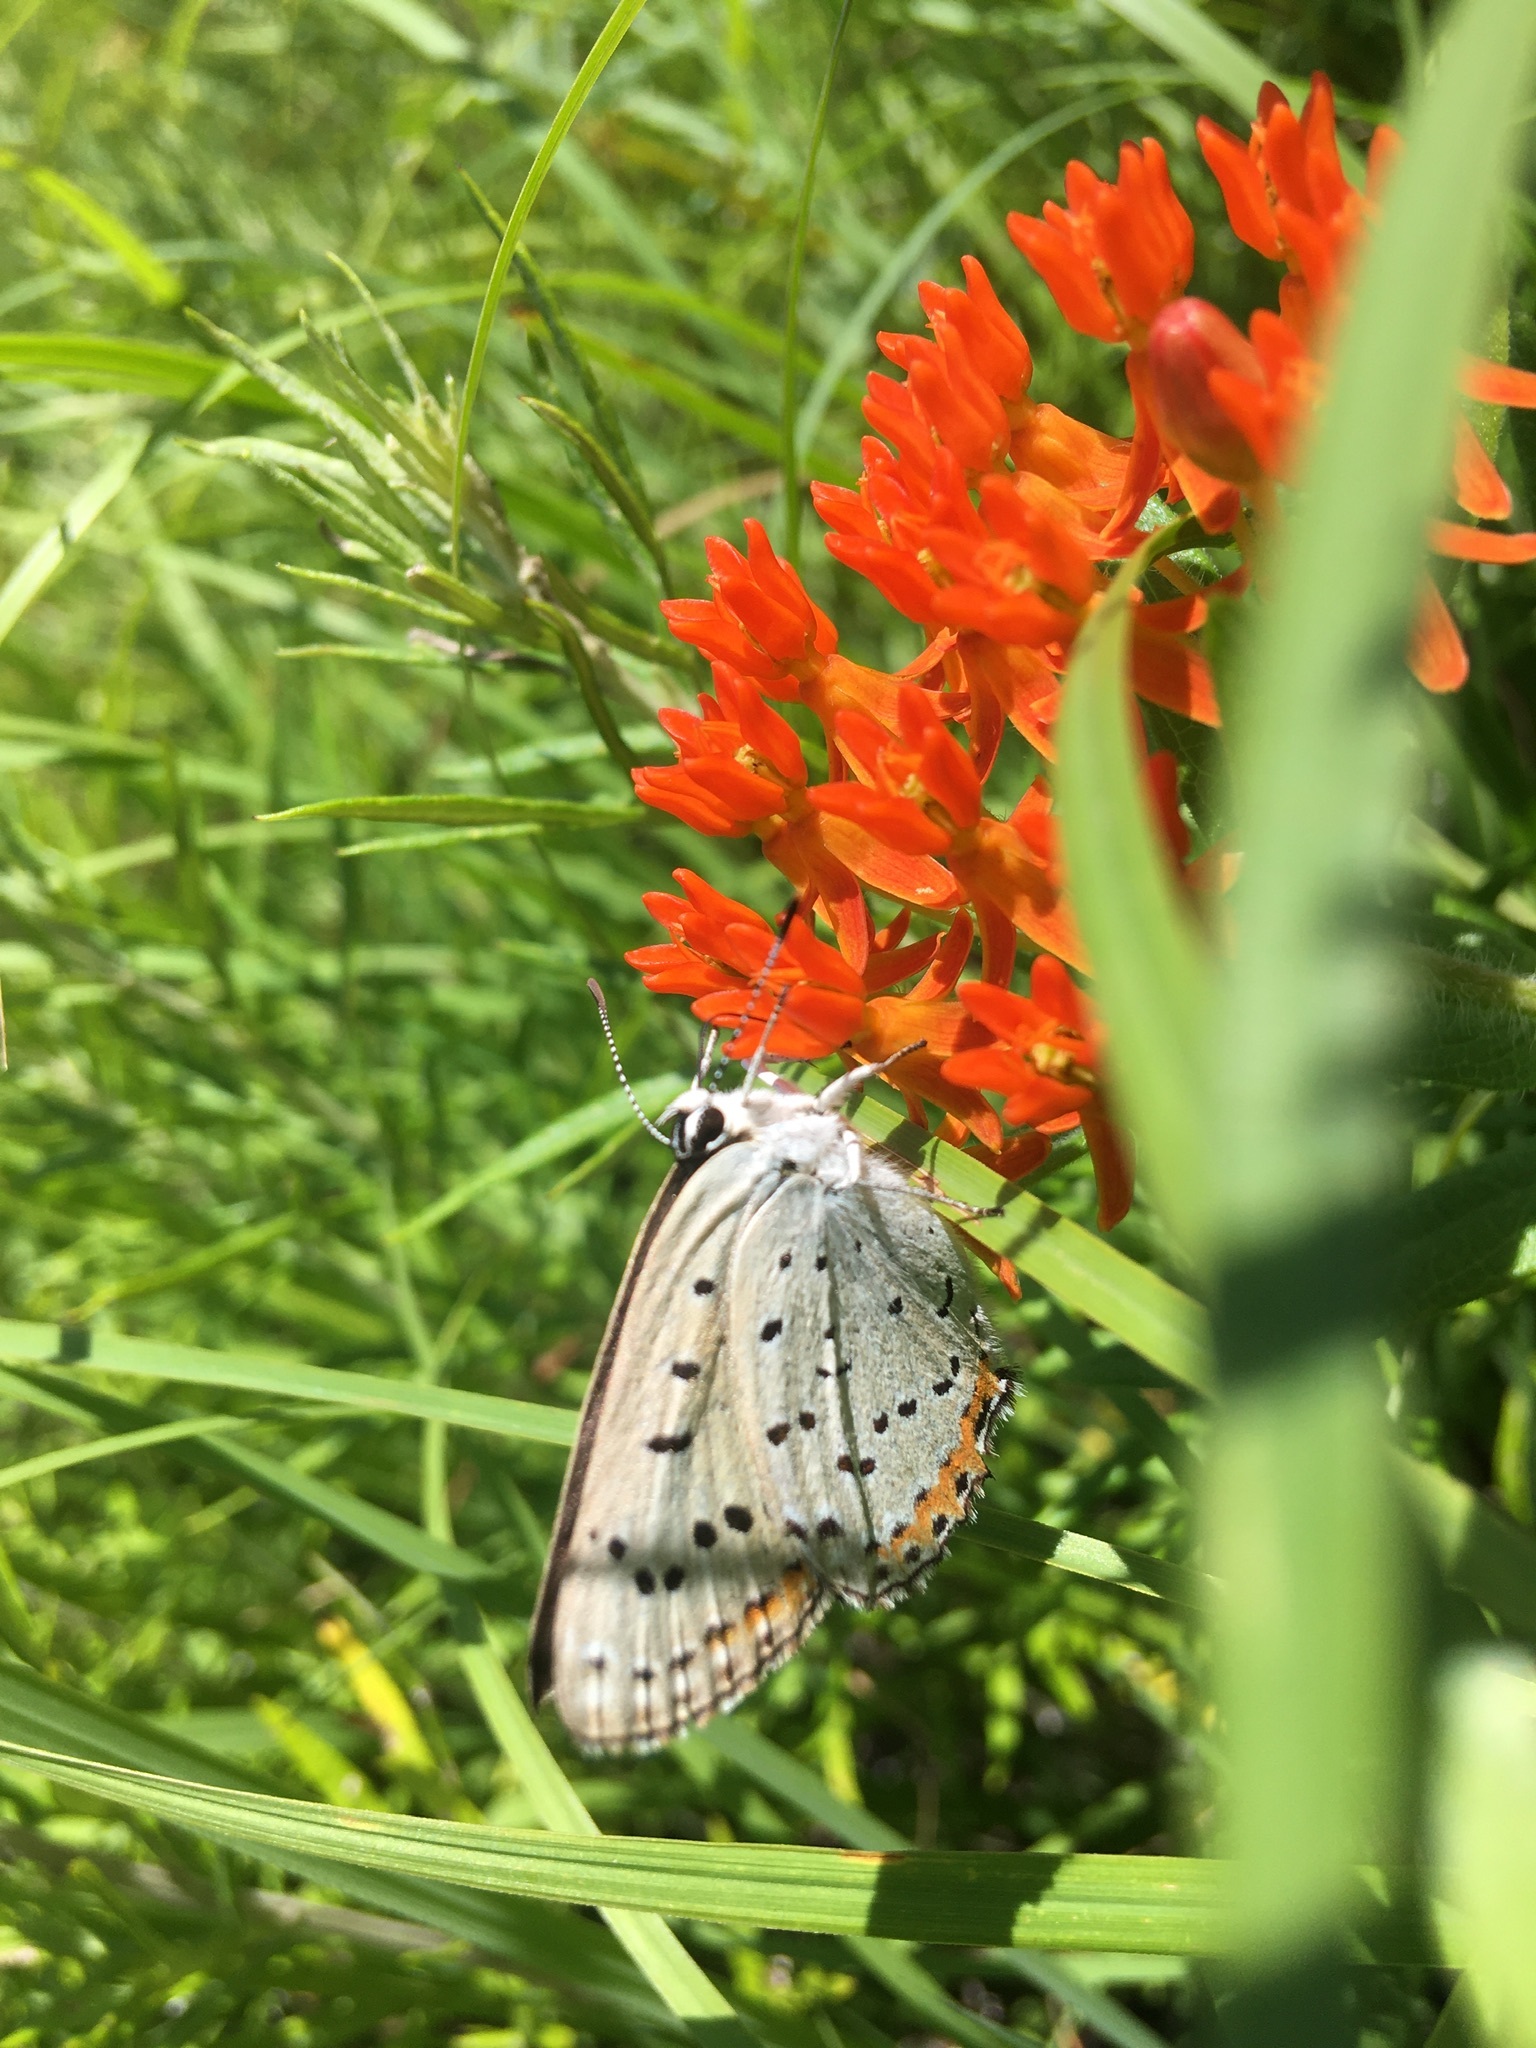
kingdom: Animalia
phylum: Arthropoda
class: Insecta
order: Lepidoptera
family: Lycaenidae
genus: Tharsalea
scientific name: Tharsalea dione
